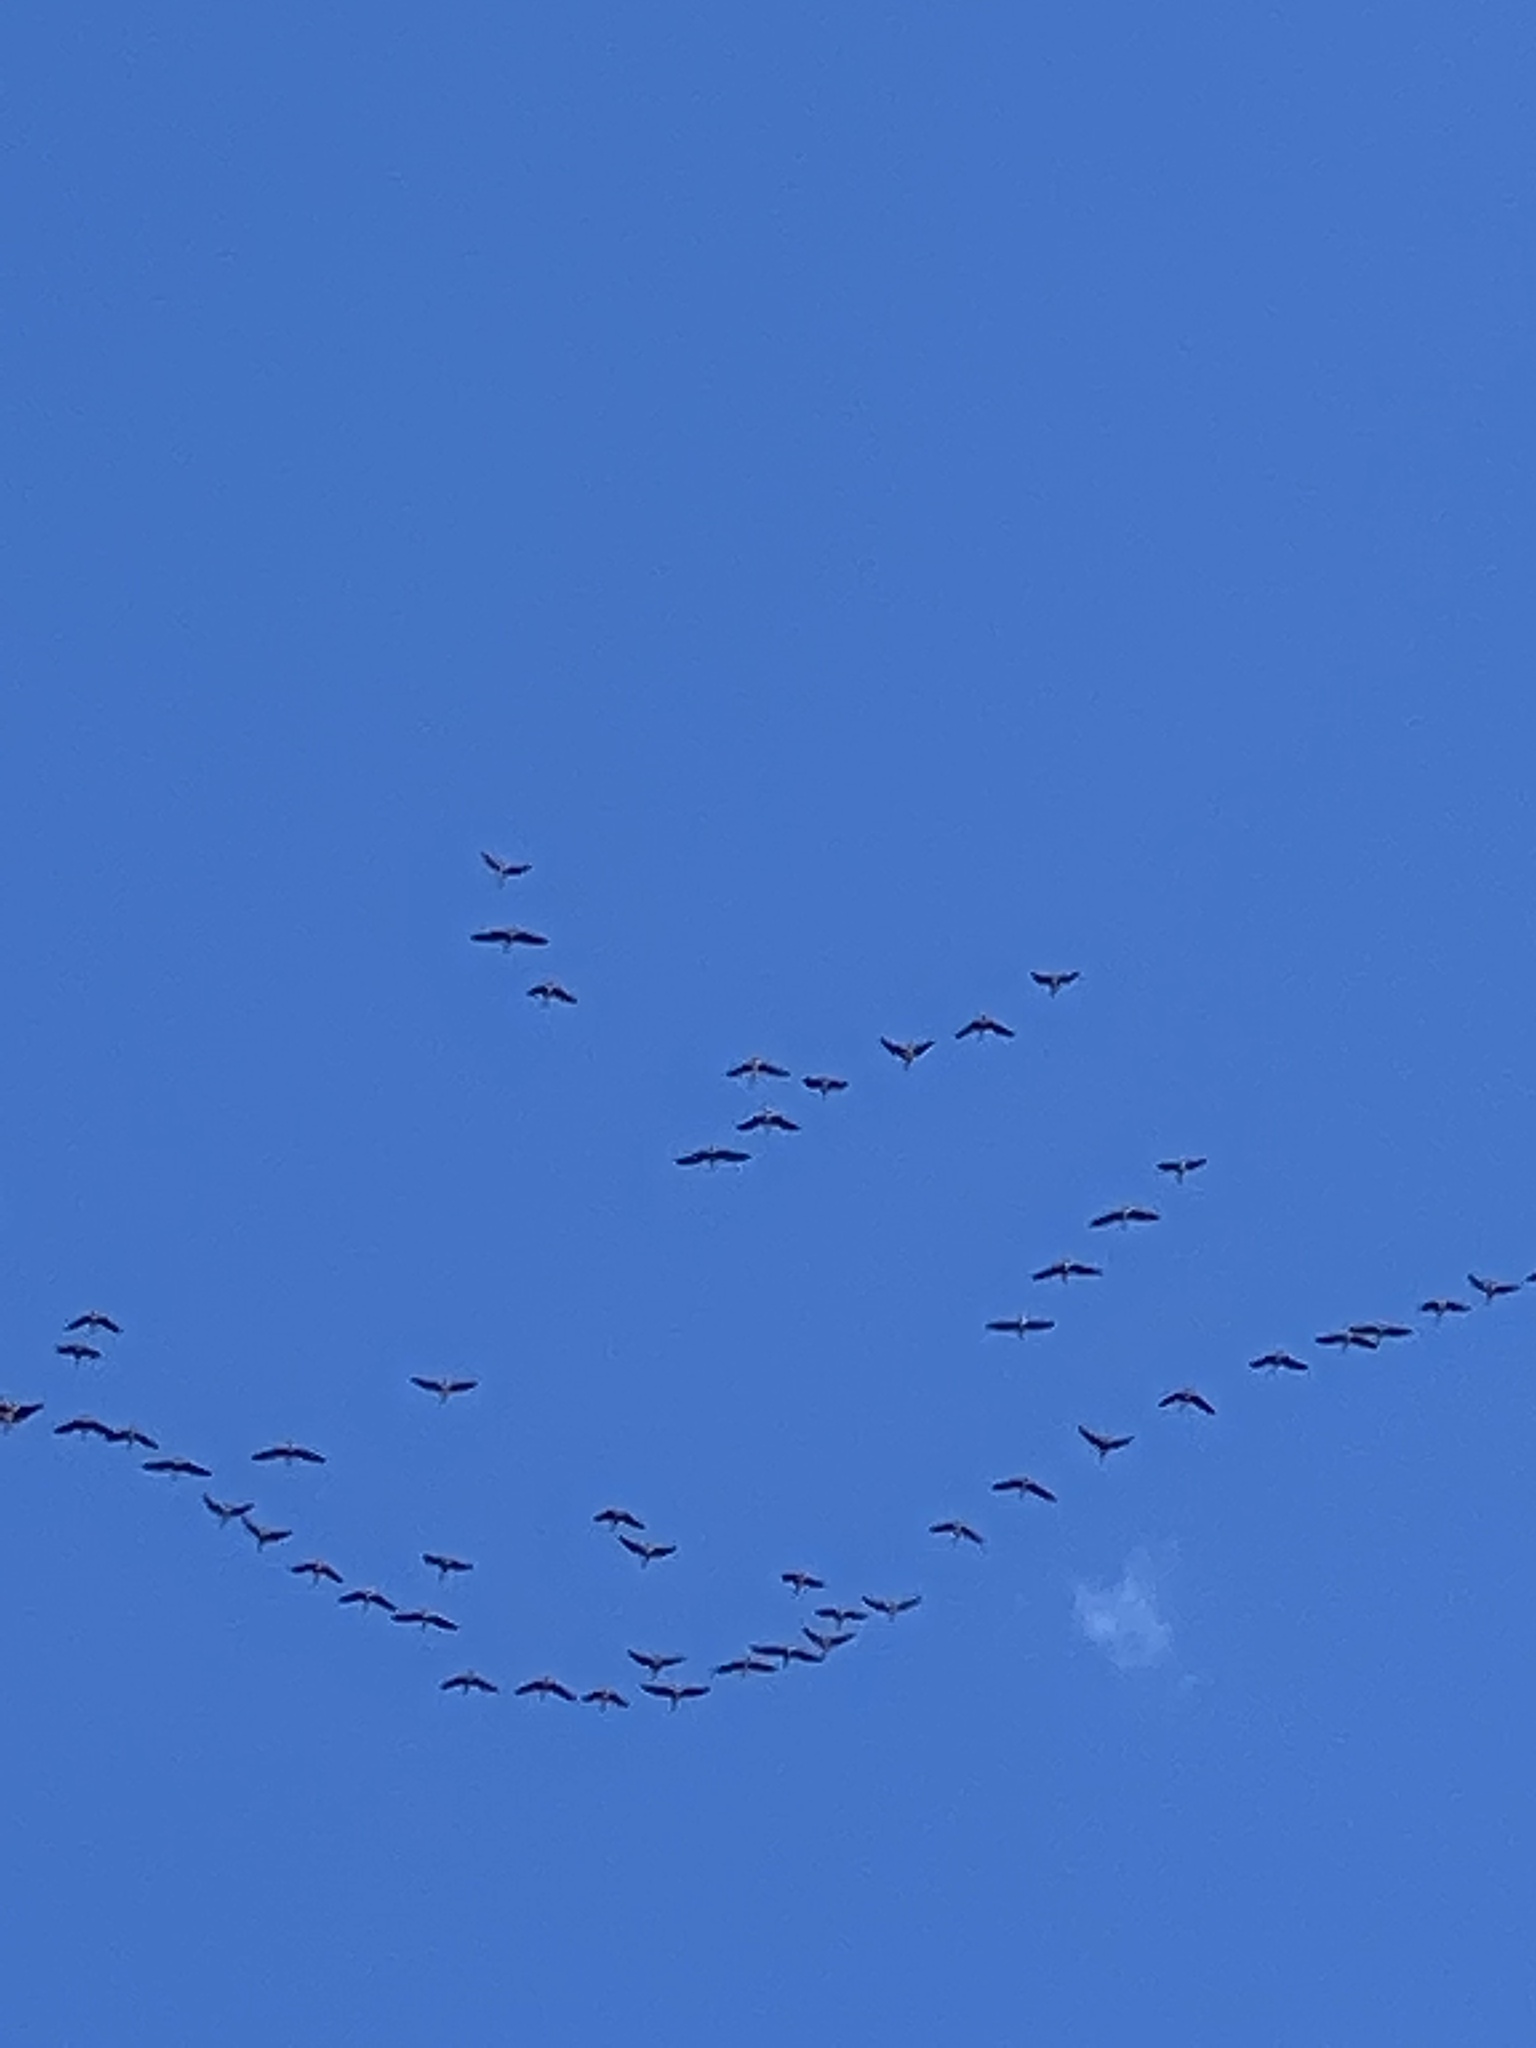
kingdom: Animalia
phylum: Chordata
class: Aves
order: Anseriformes
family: Anatidae
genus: Anser
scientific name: Anser albifrons
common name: Greater white-fronted goose
